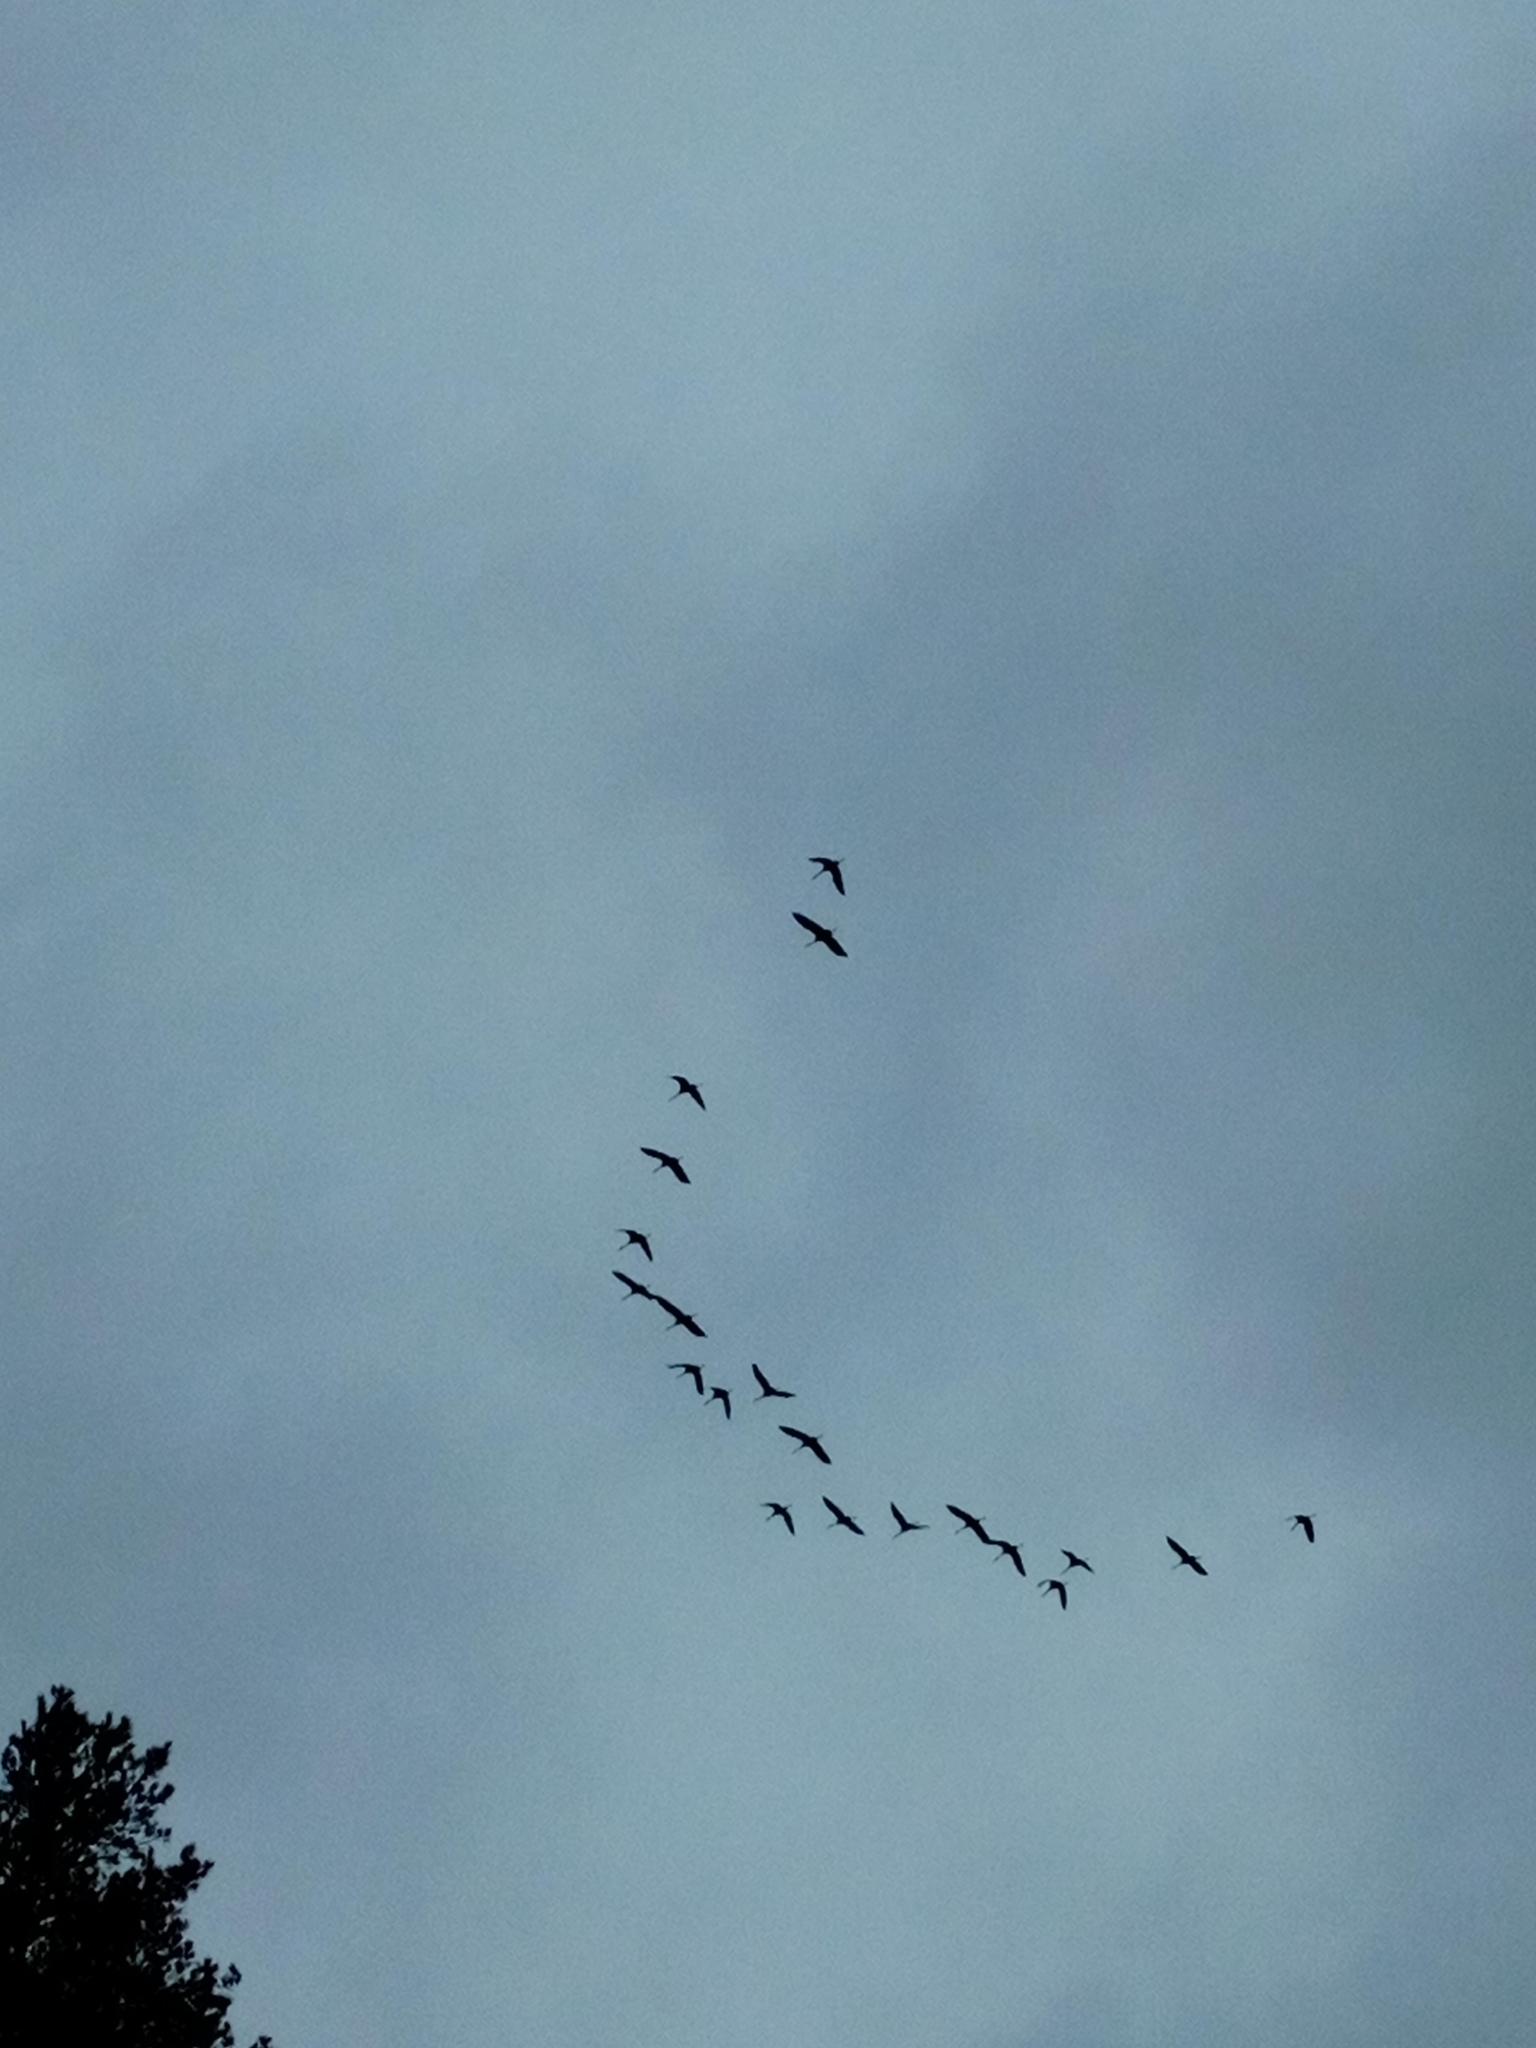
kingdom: Animalia
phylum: Chordata
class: Aves
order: Gruiformes
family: Gruidae
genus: Grus
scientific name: Grus grus
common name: Common crane
